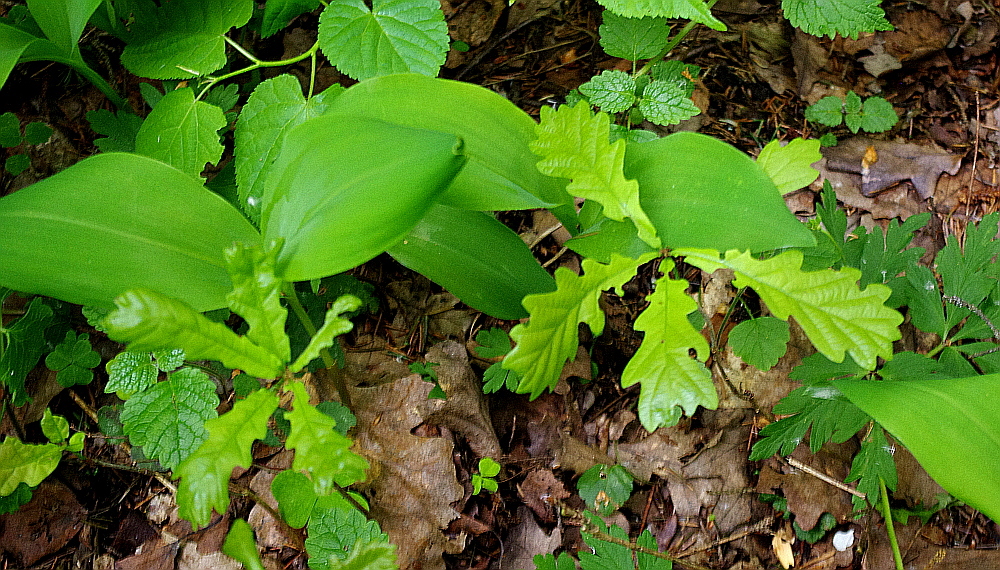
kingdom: Plantae
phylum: Tracheophyta
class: Magnoliopsida
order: Fagales
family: Fagaceae
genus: Quercus
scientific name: Quercus robur
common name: Pedunculate oak
